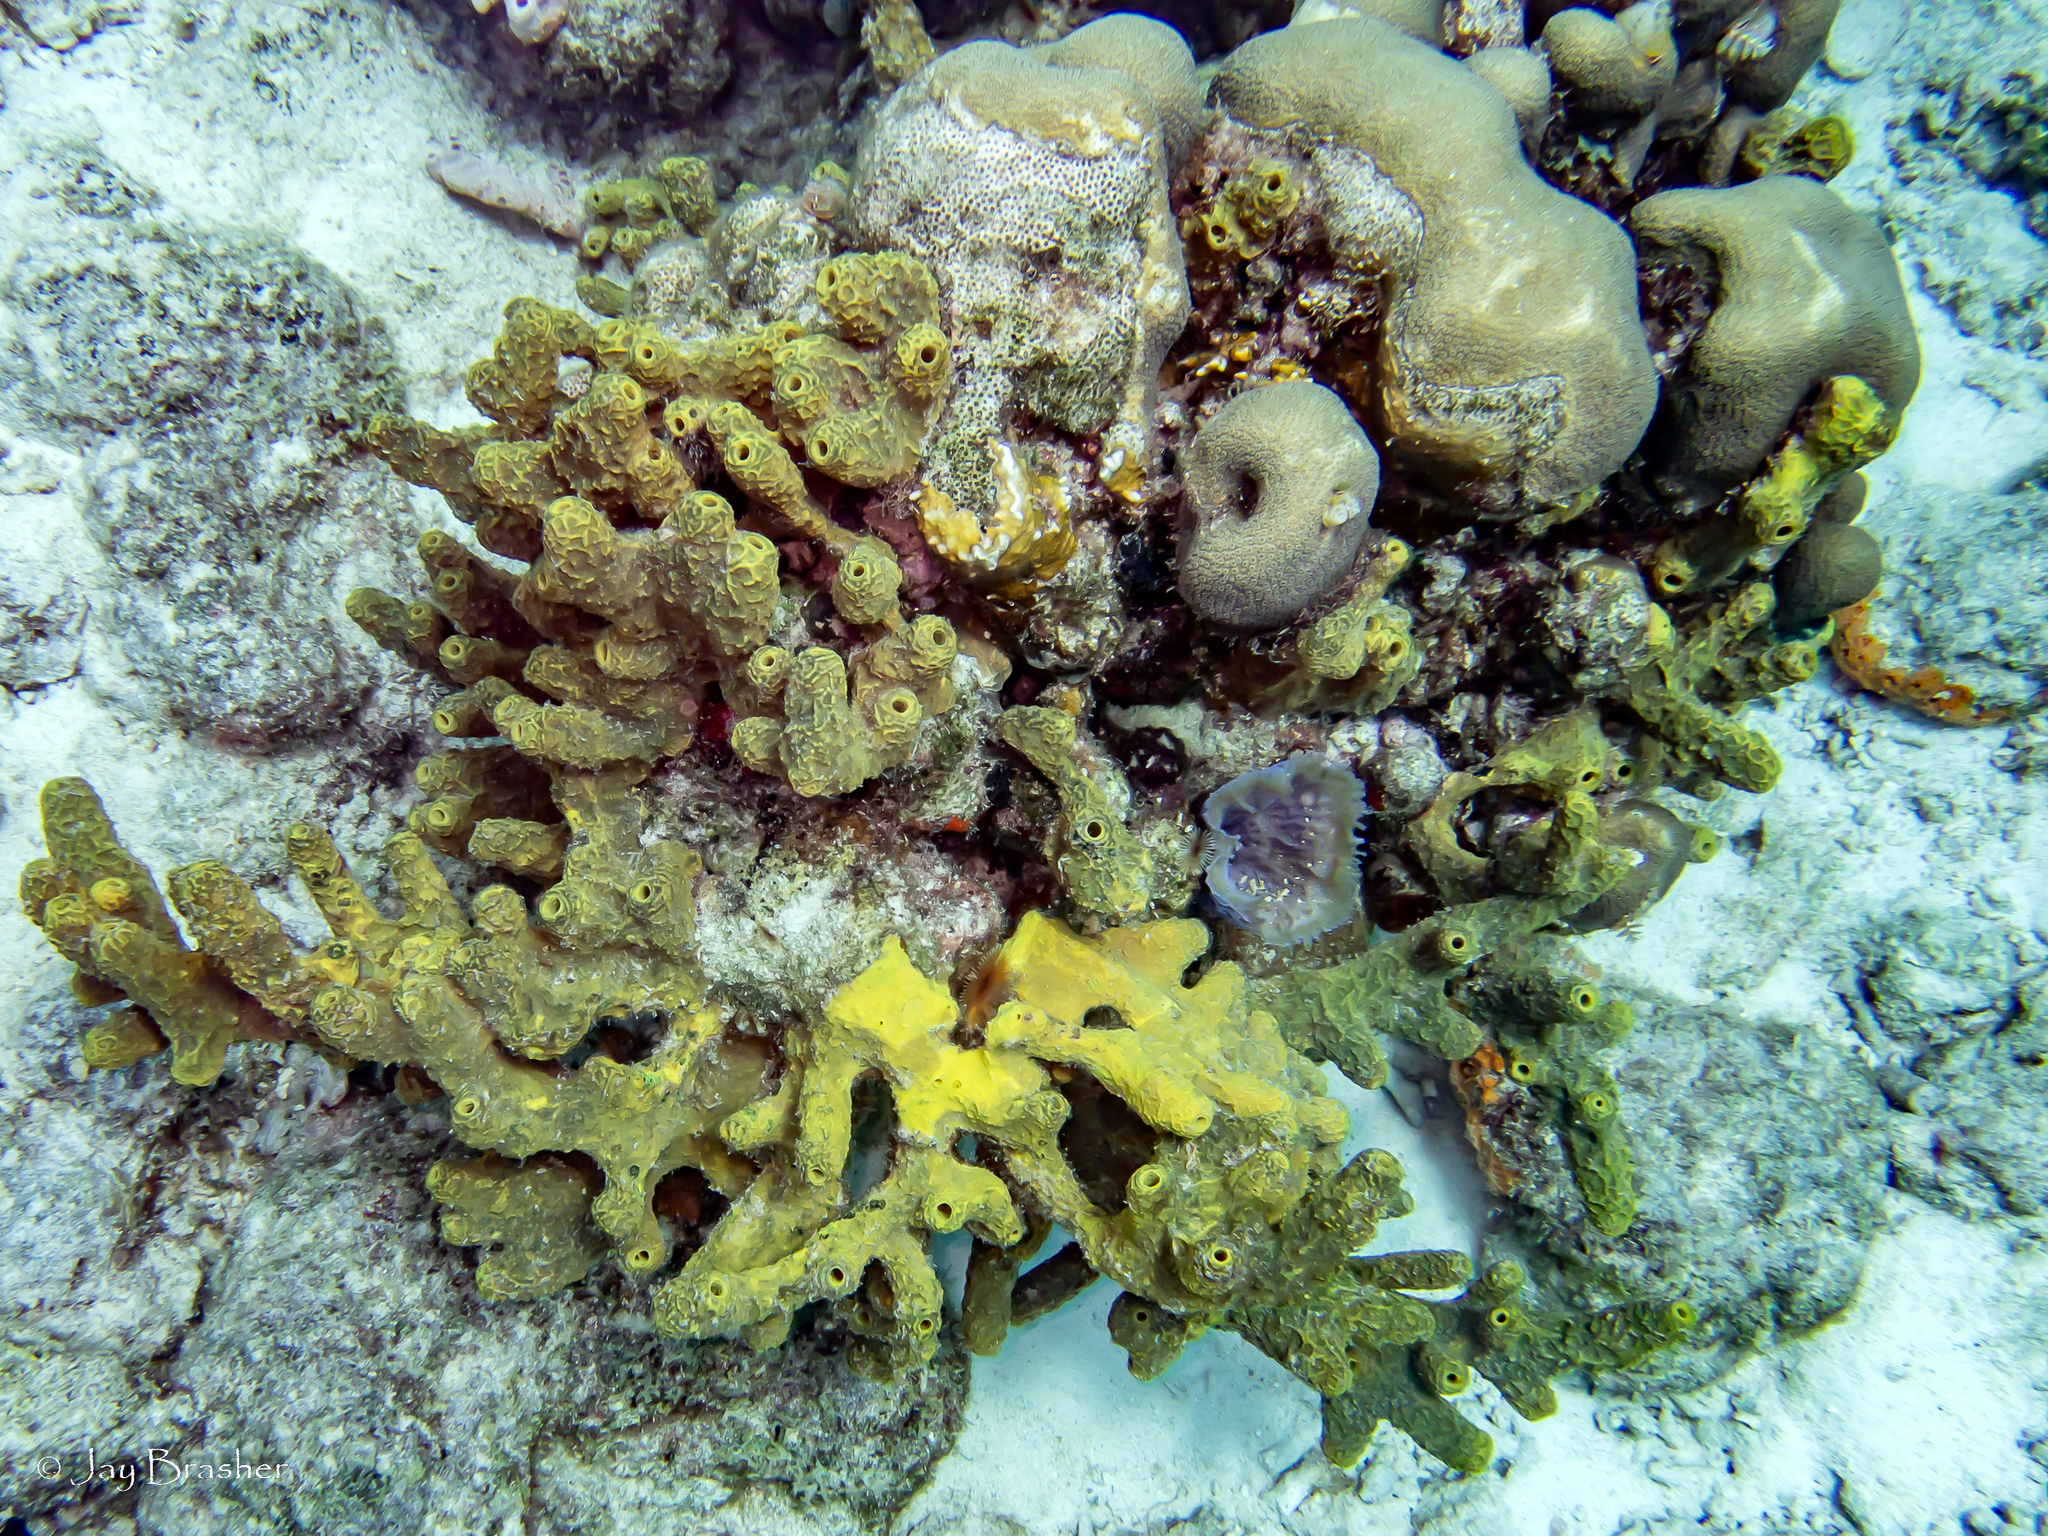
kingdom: Animalia
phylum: Porifera
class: Demospongiae
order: Verongiida
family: Aplysinidae
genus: Verongula
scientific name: Verongula rigida
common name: Pitted sponge
